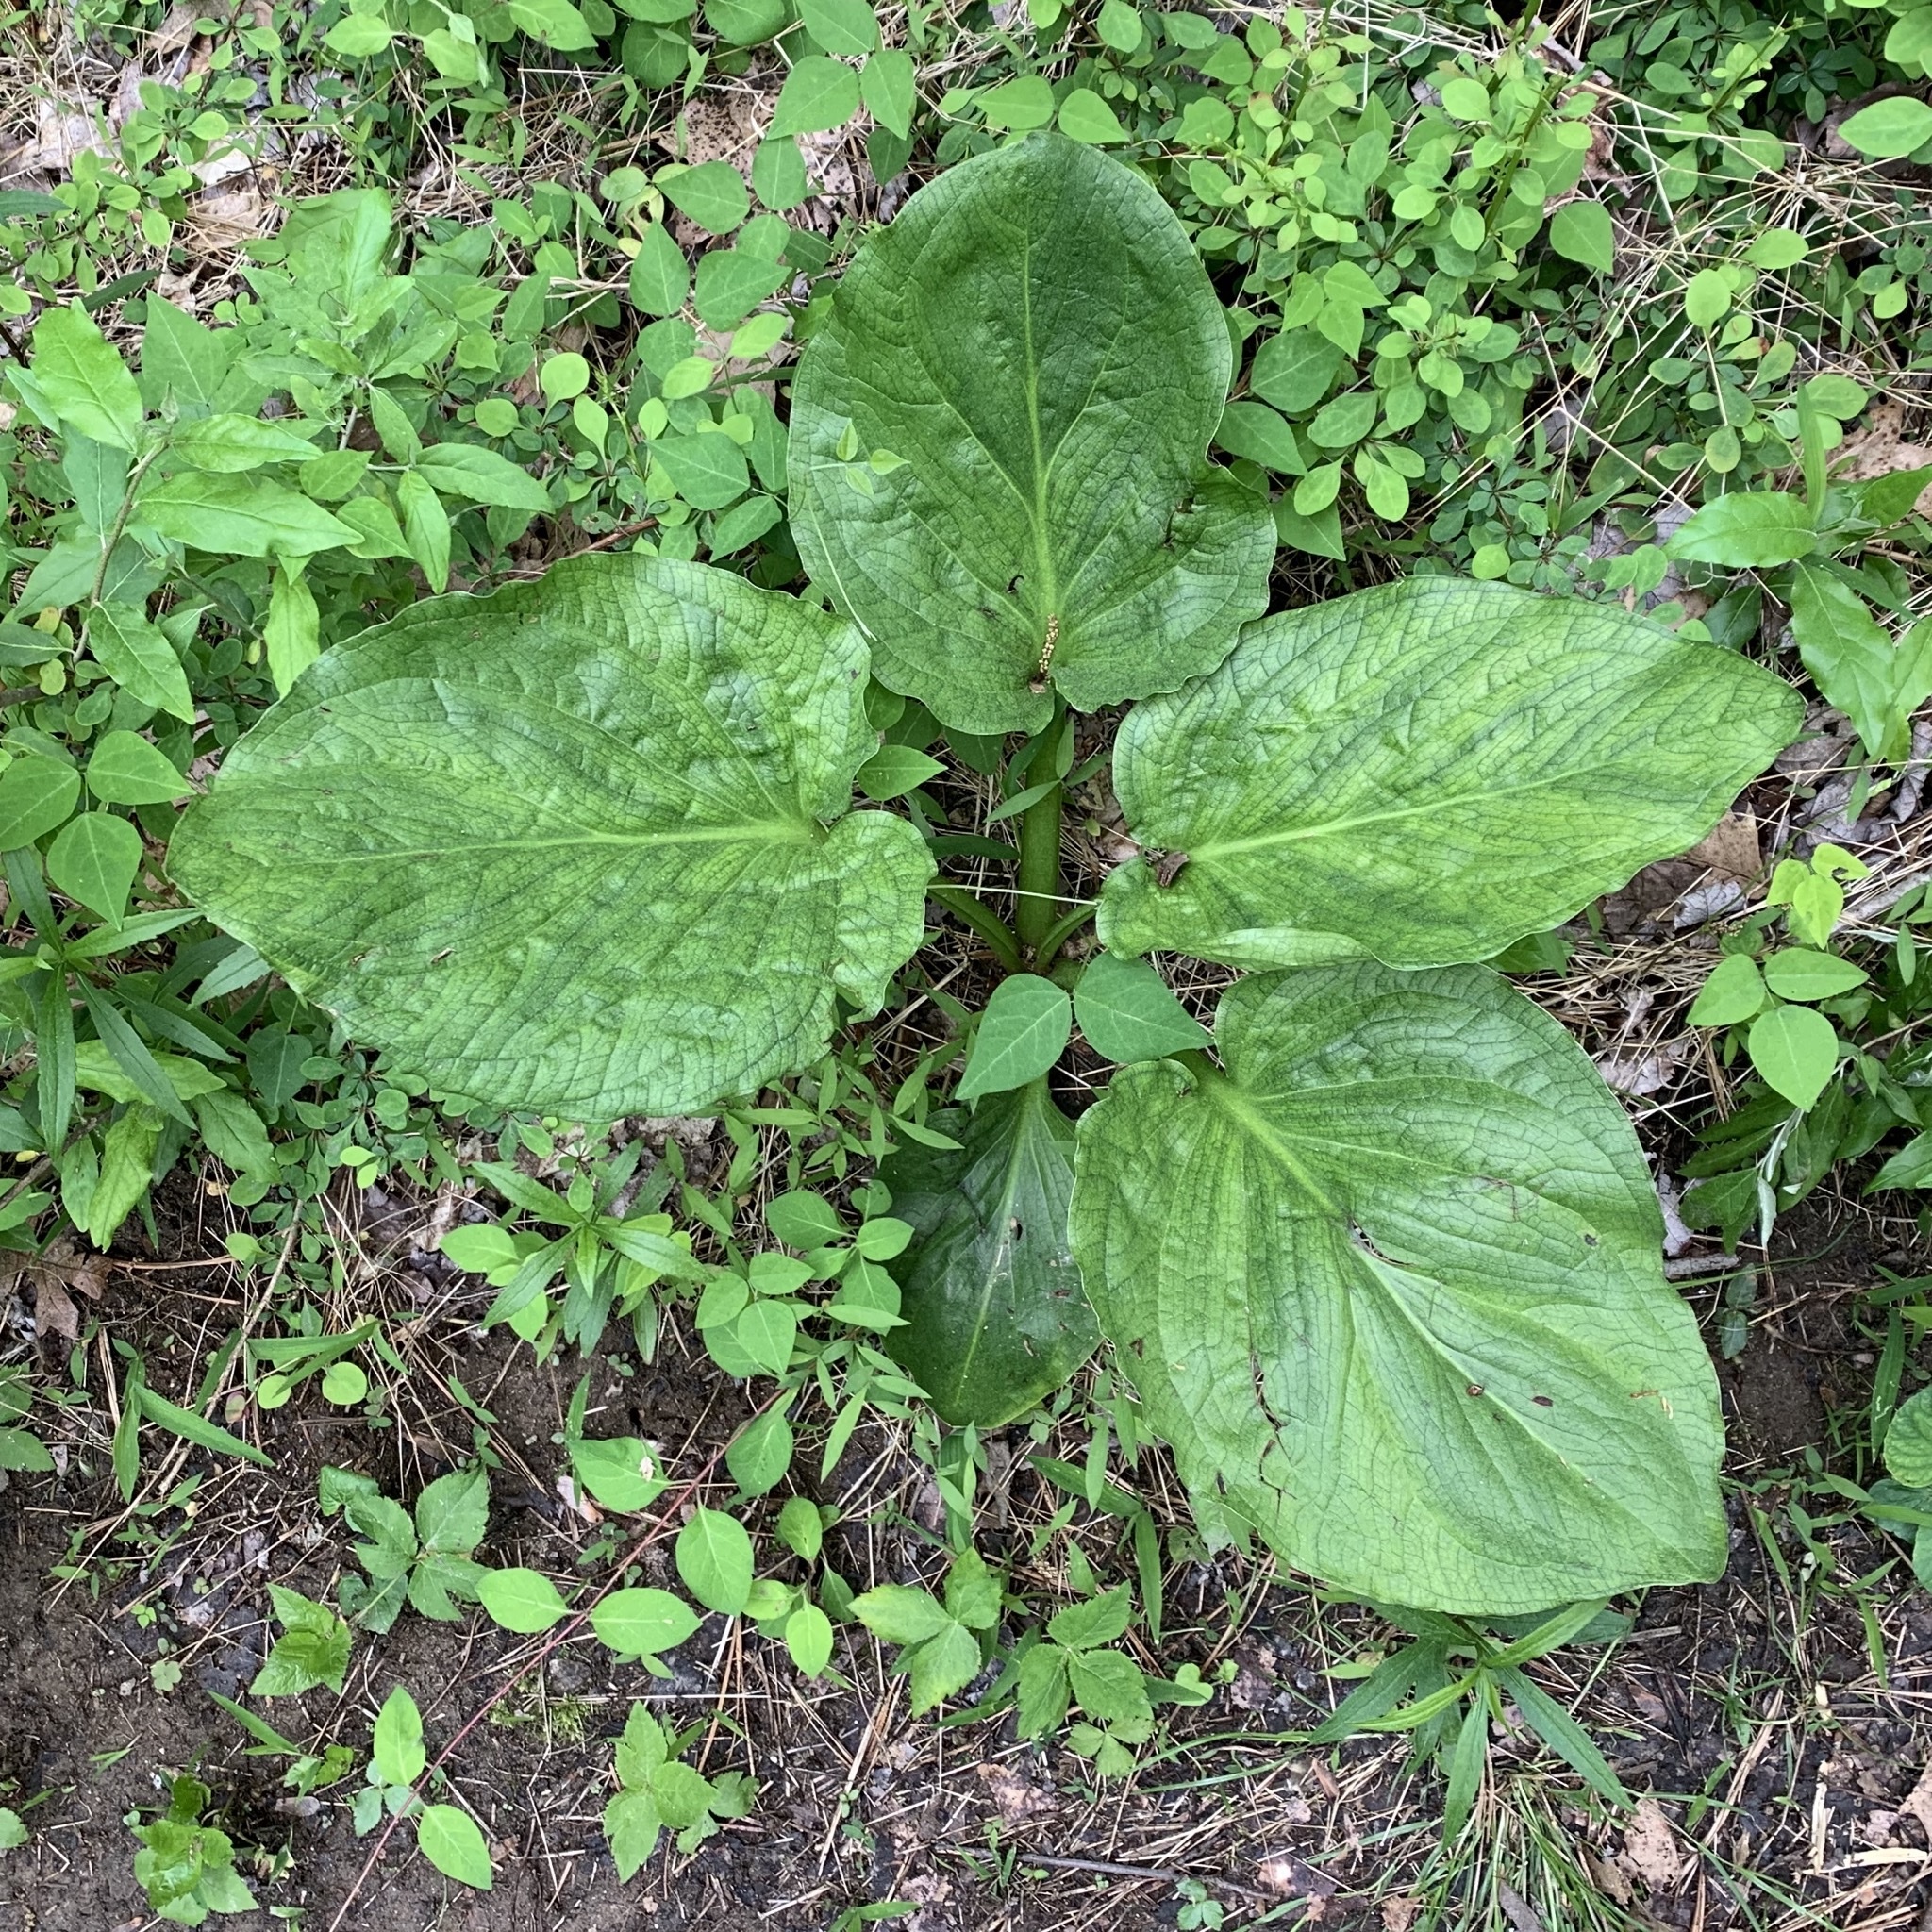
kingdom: Plantae
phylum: Tracheophyta
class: Liliopsida
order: Alismatales
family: Araceae
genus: Symplocarpus
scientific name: Symplocarpus foetidus
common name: Eastern skunk cabbage
